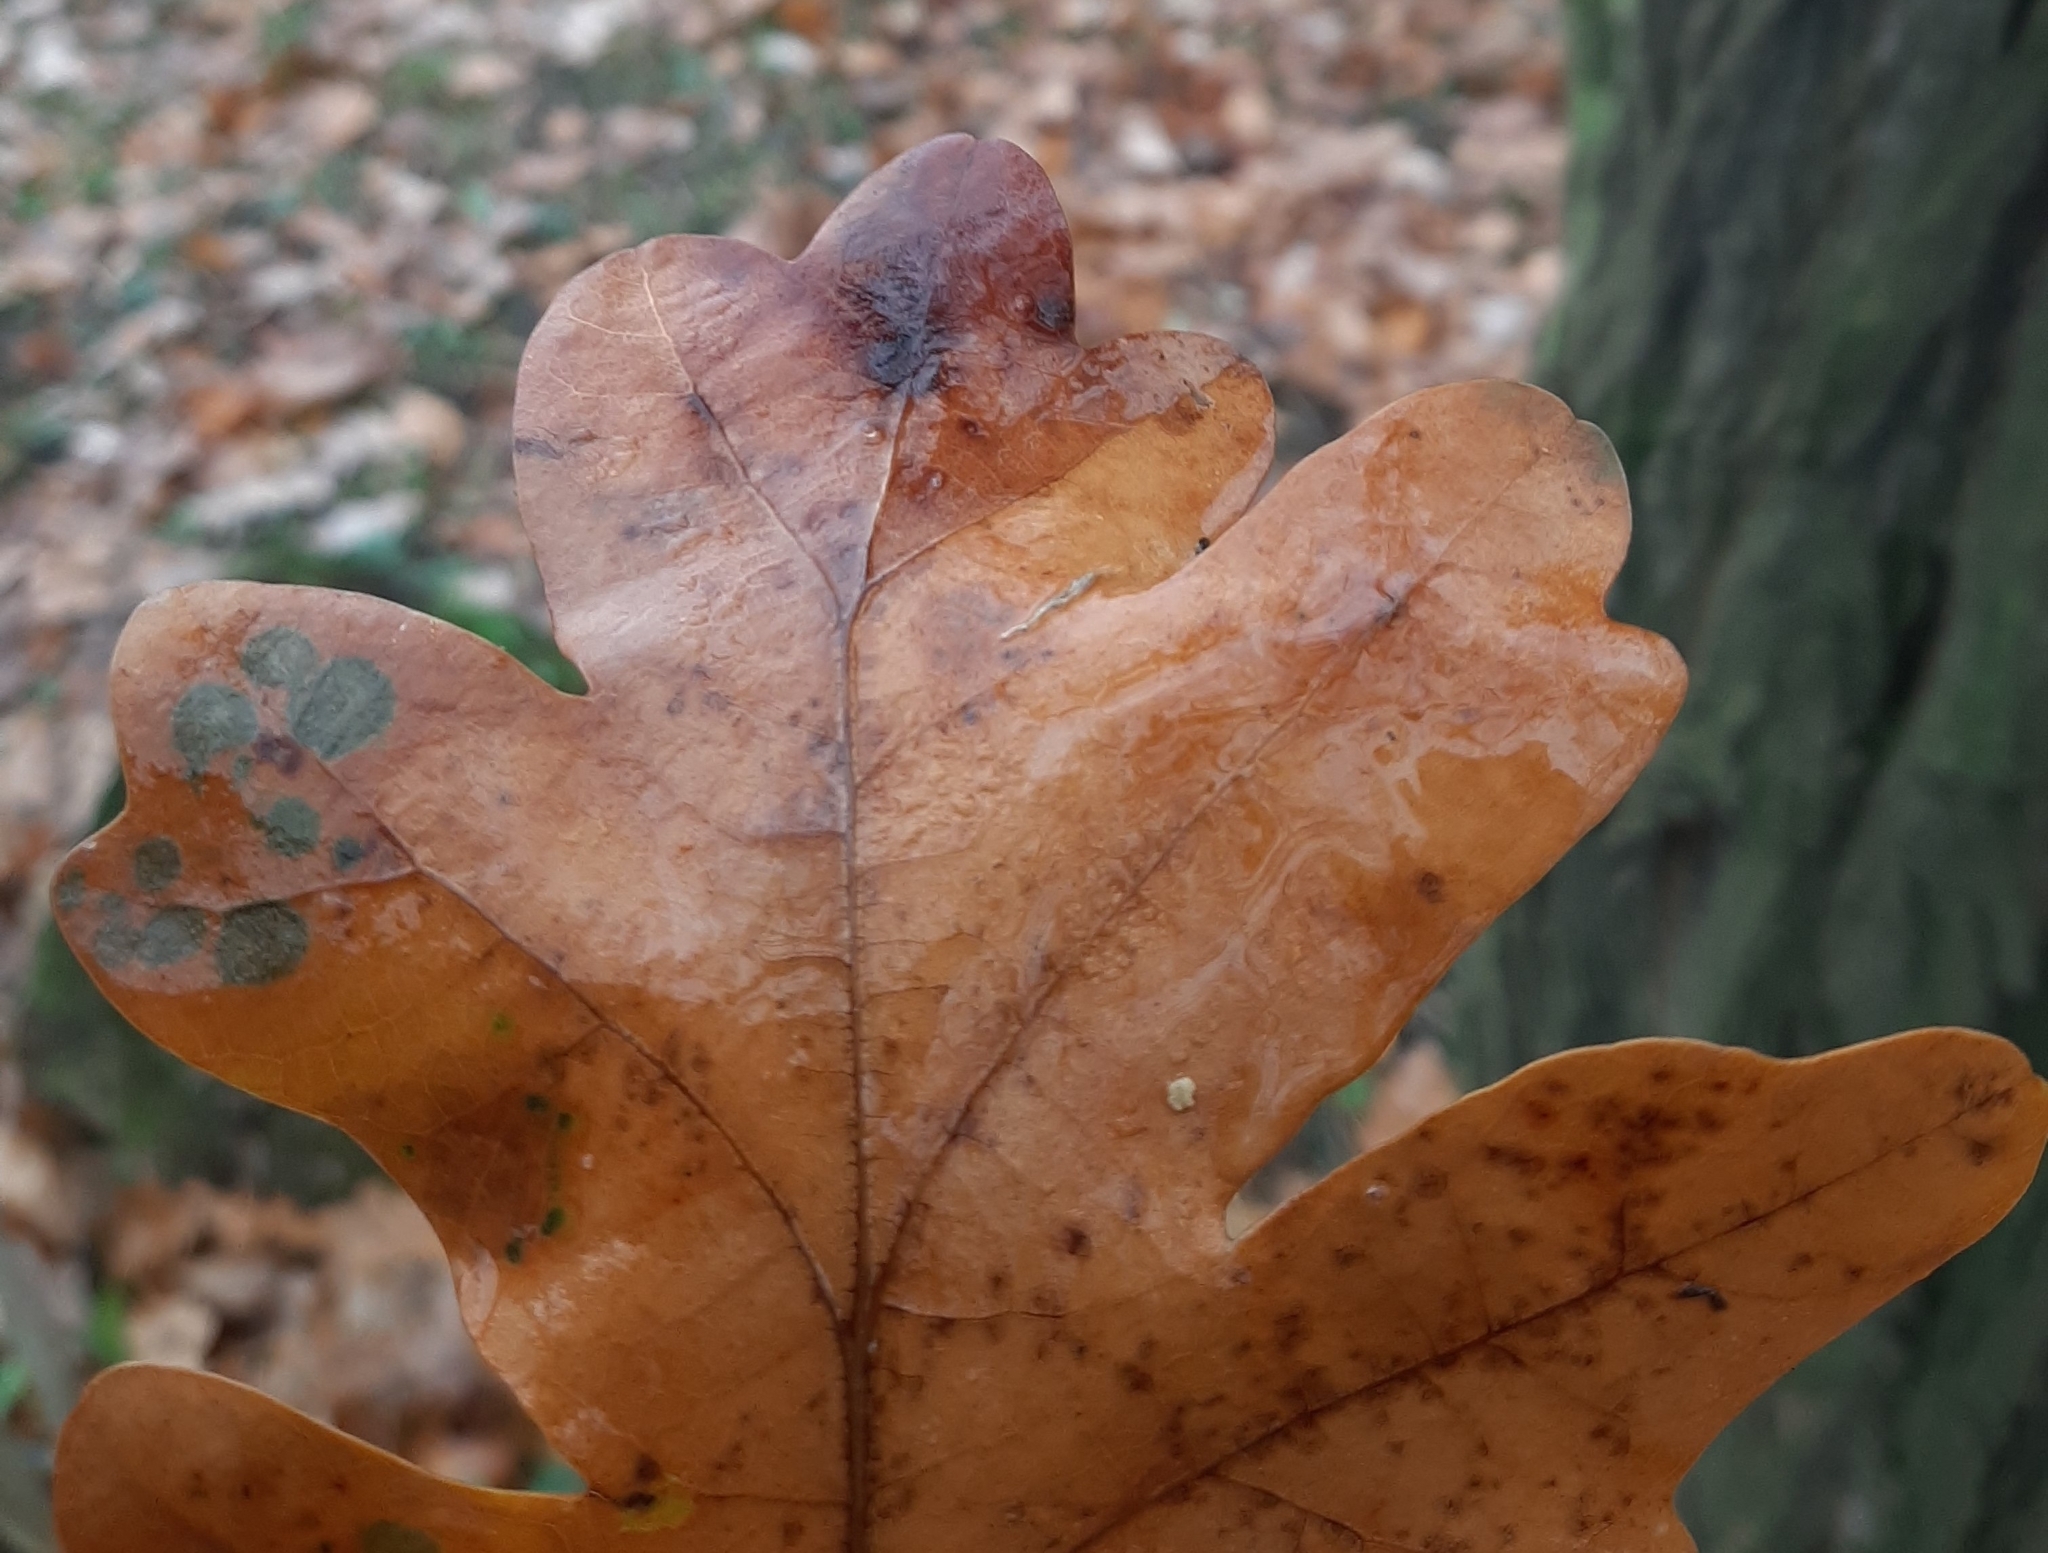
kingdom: Animalia
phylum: Arthropoda
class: Insecta
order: Hymenoptera
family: Cynipidae
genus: Cynips
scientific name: Cynips quercusfolii
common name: Cherry gall
